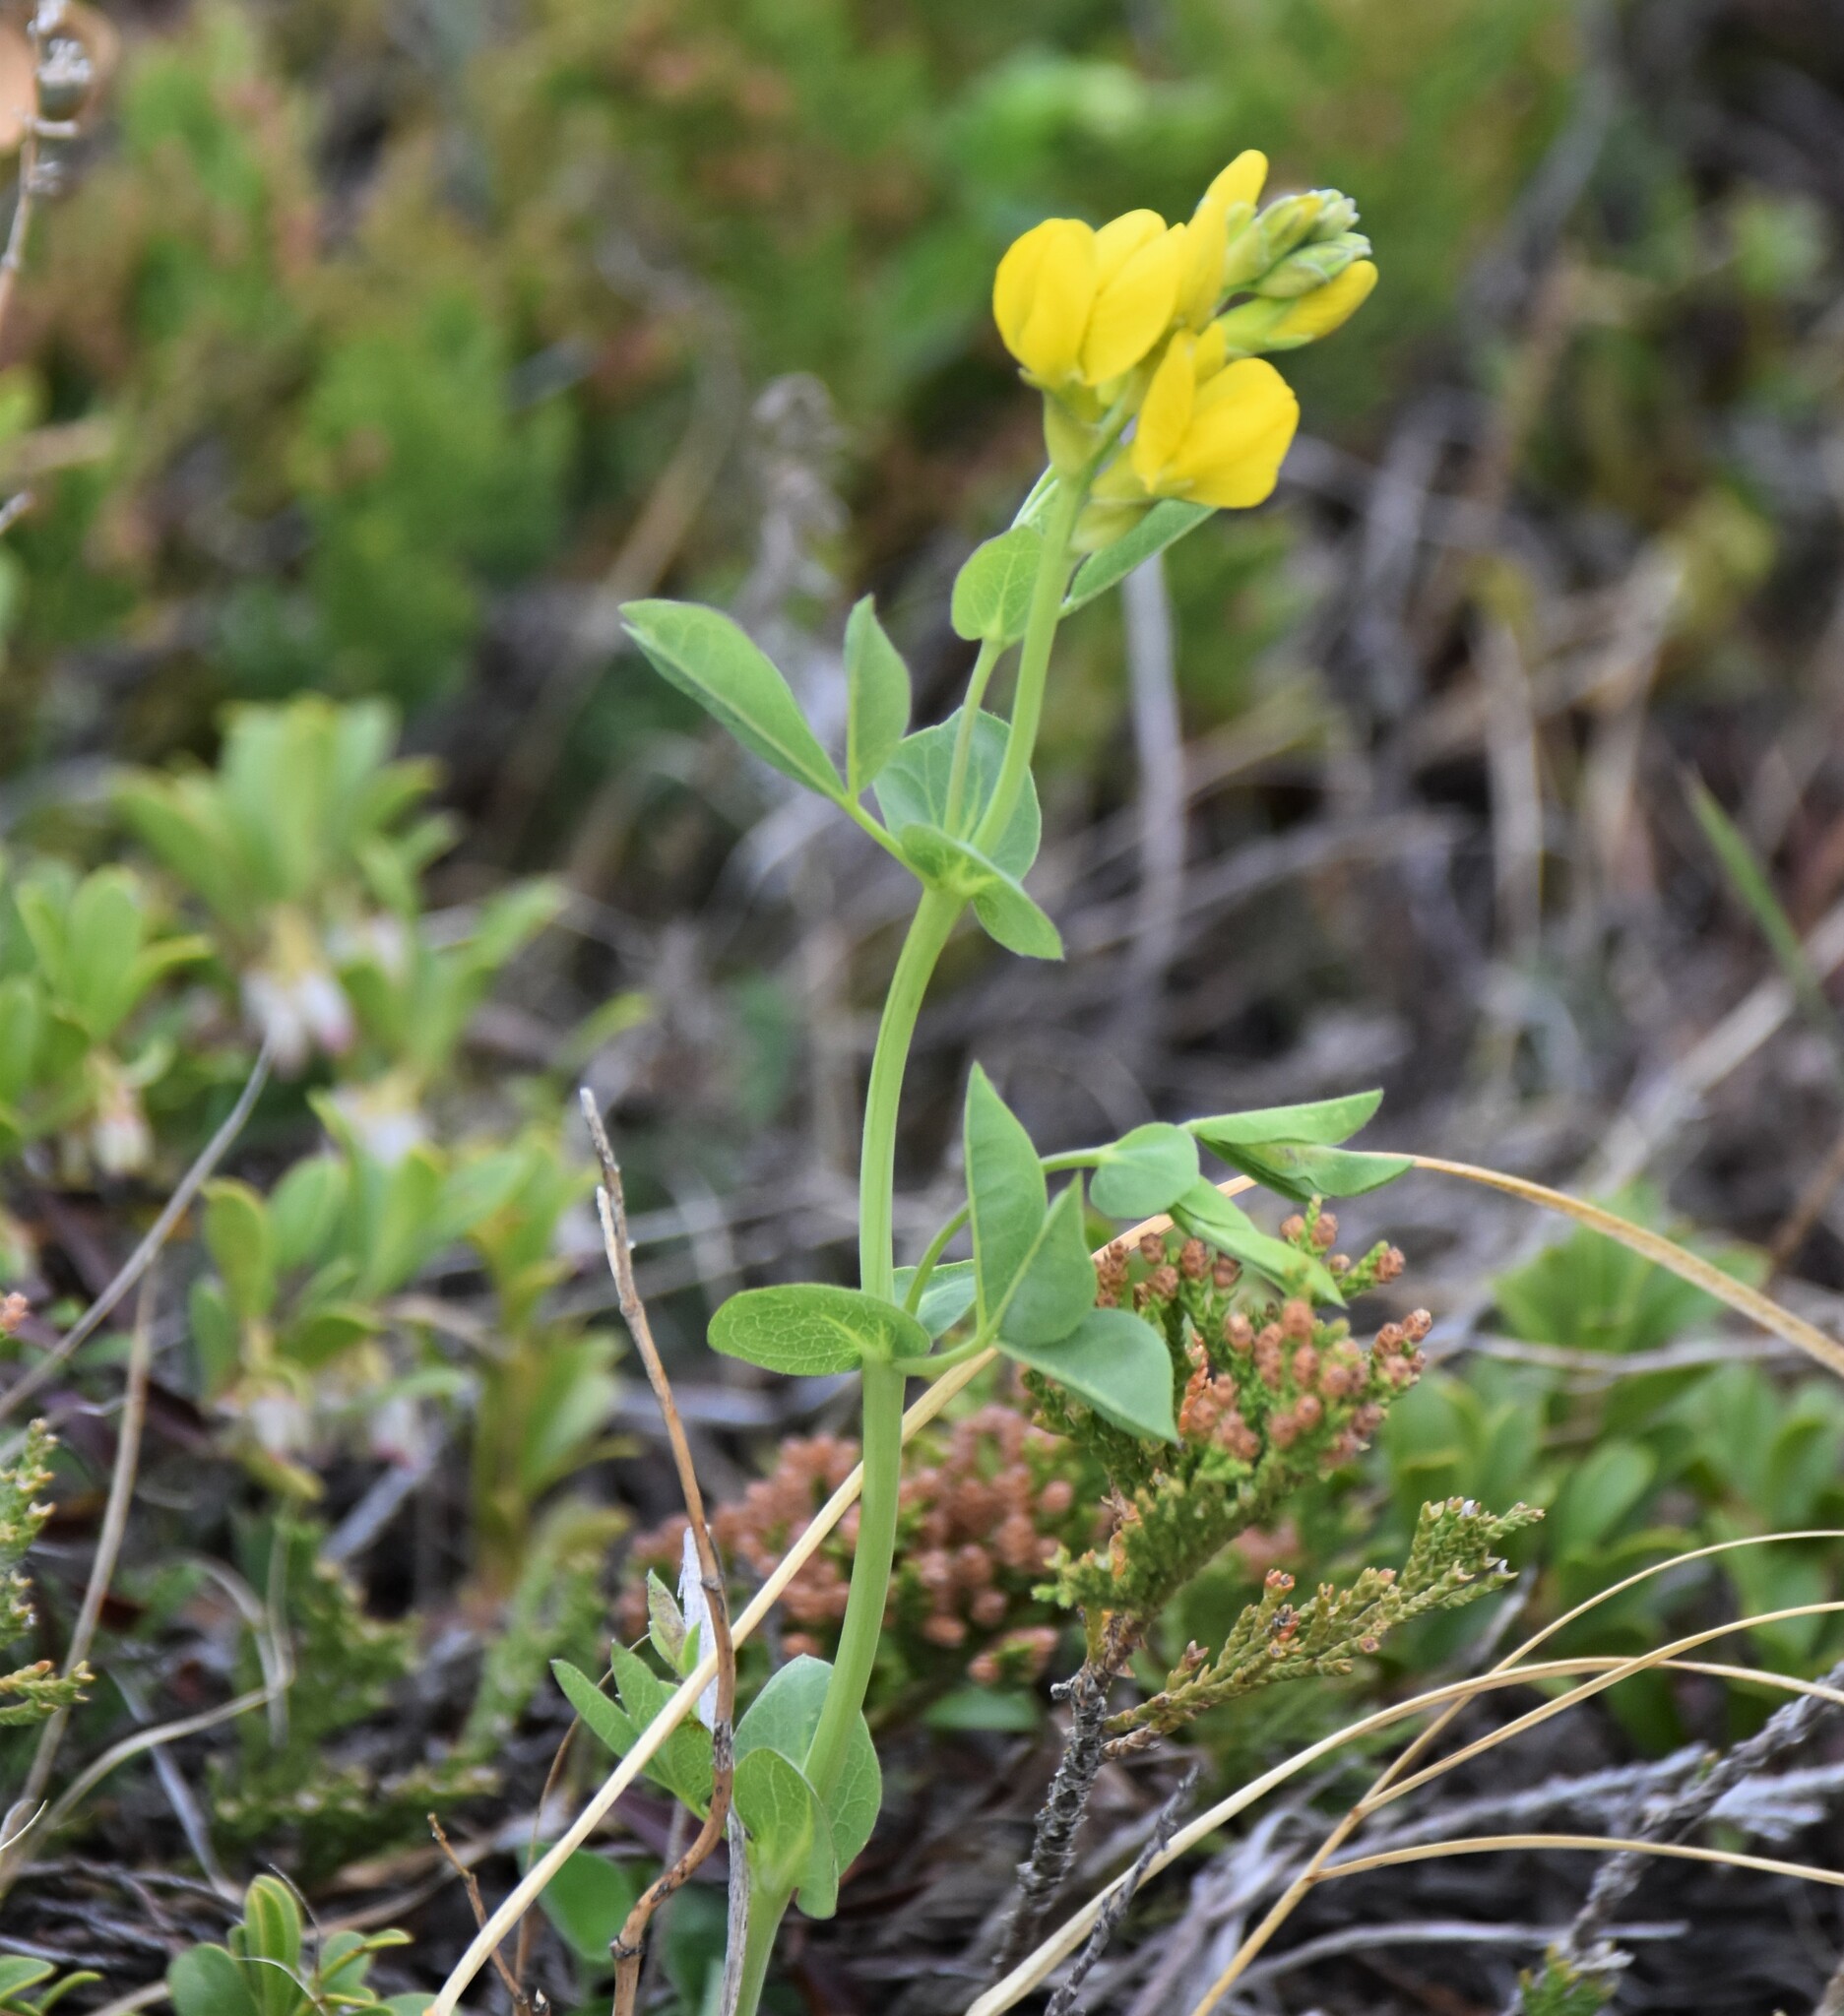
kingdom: Plantae
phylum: Tracheophyta
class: Magnoliopsida
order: Fabales
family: Fabaceae
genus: Thermopsis
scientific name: Thermopsis rhombifolia
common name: Circle-pod-pea
